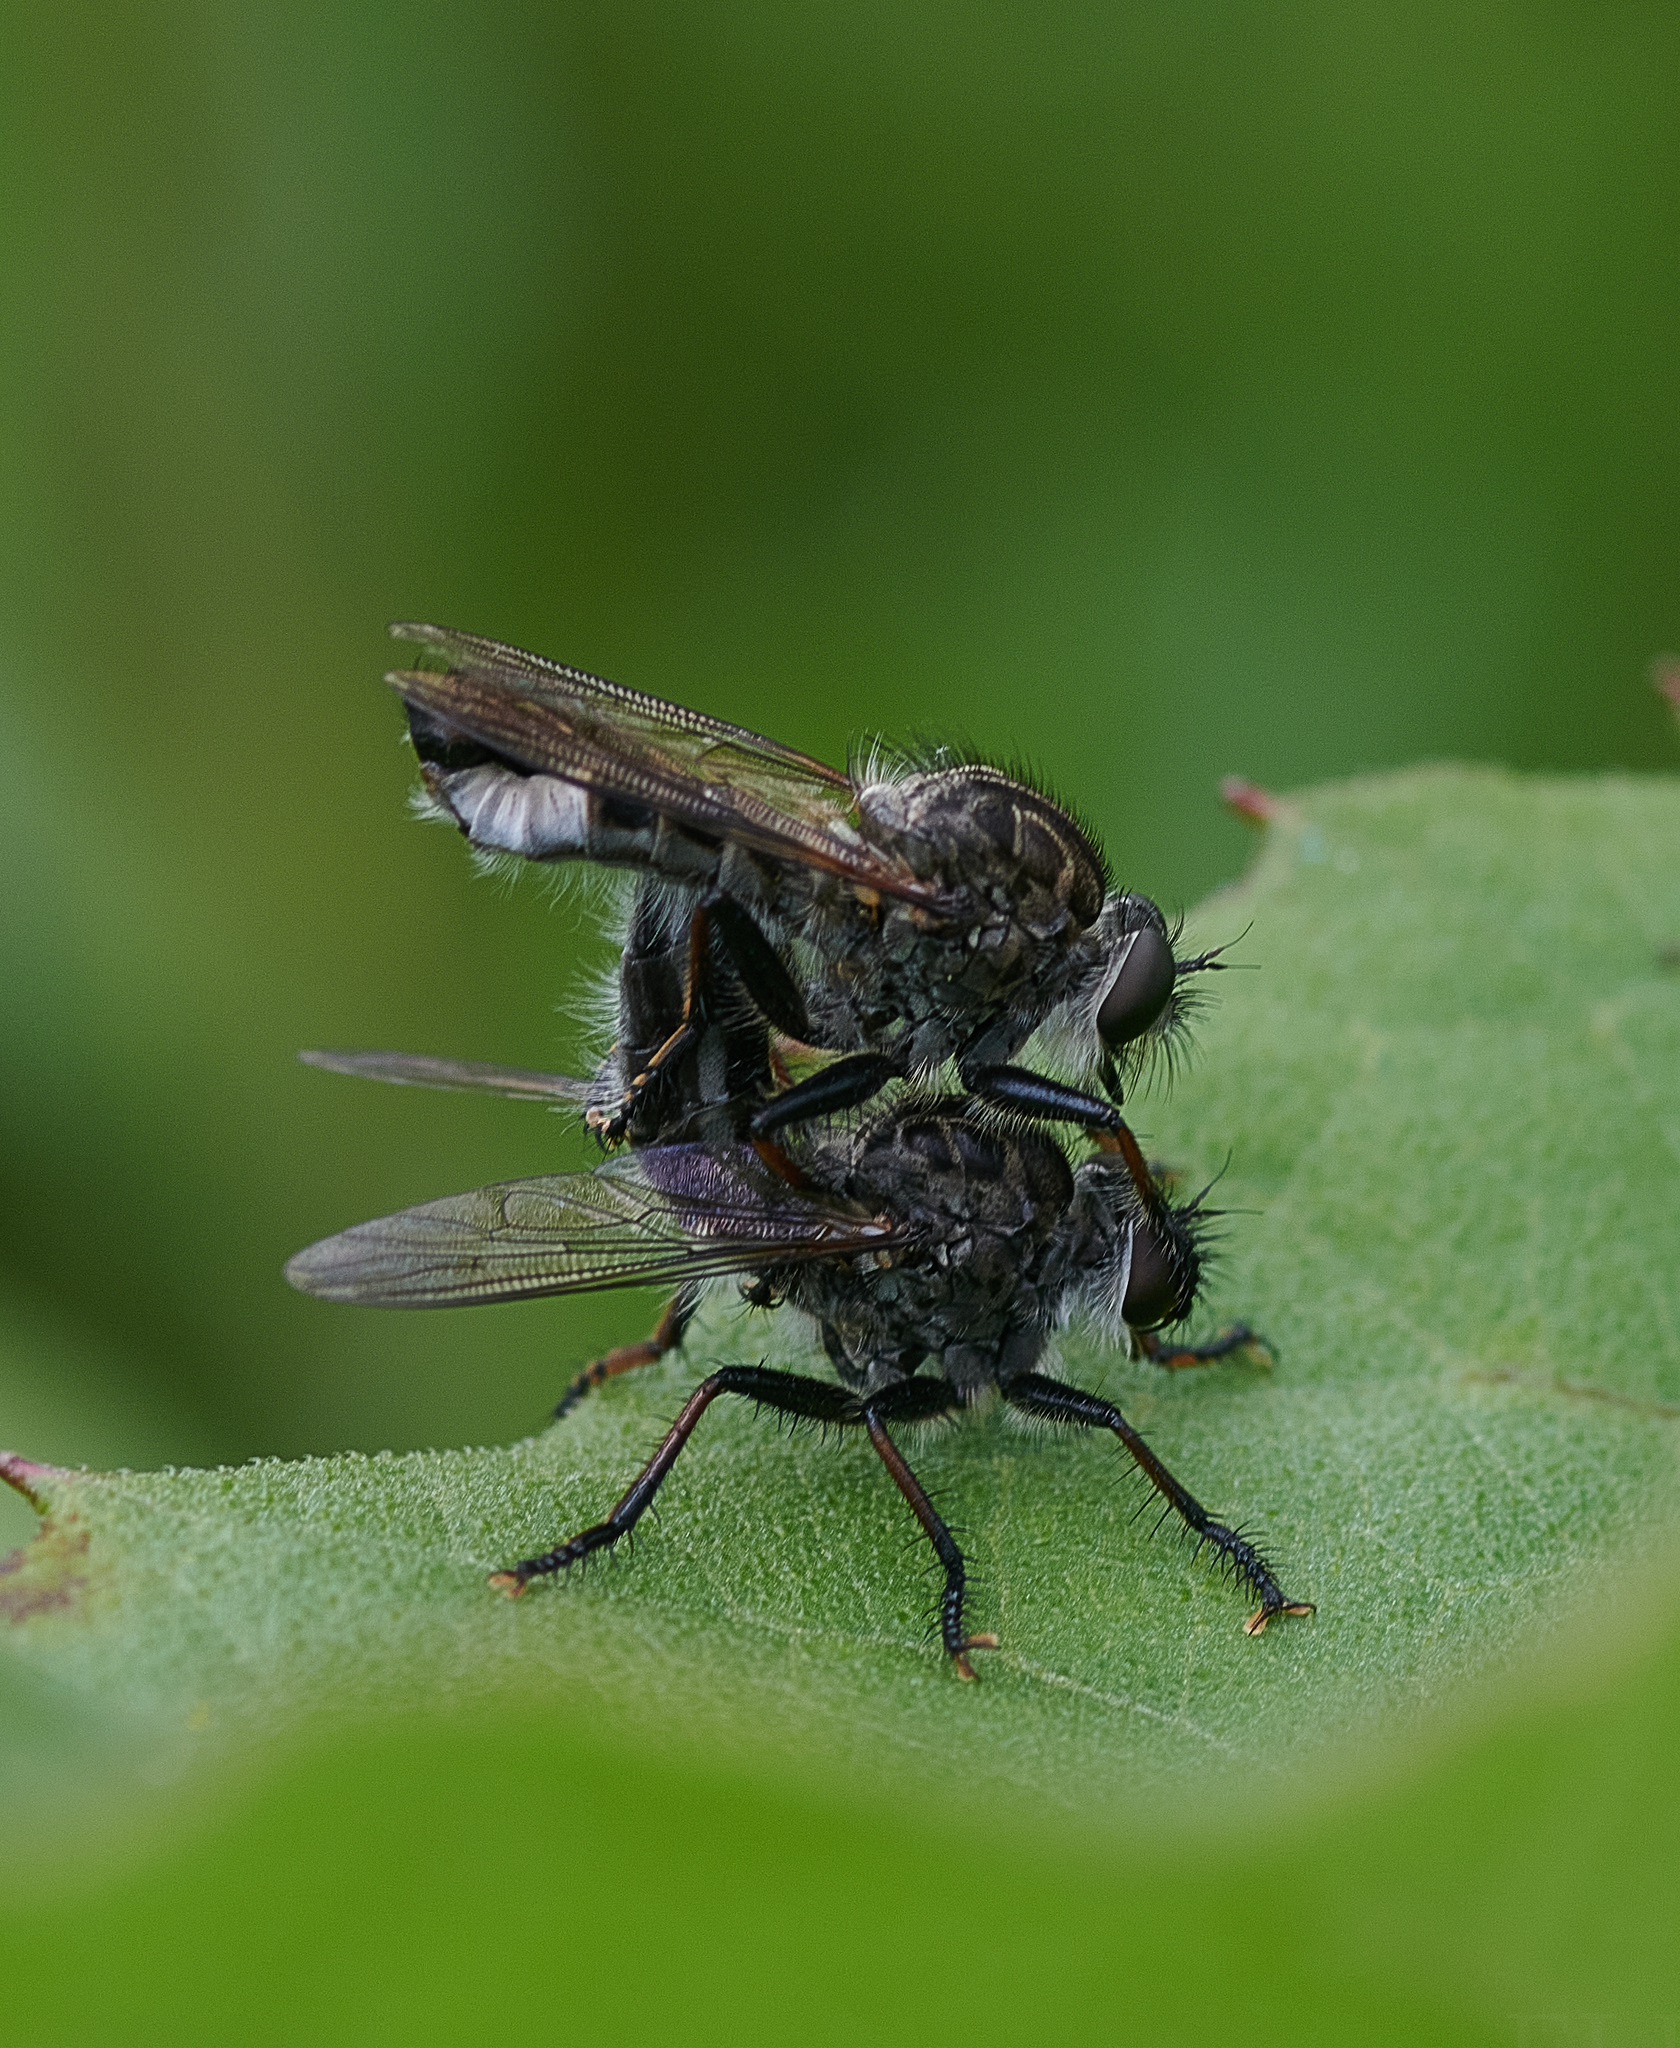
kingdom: Animalia
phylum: Arthropoda
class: Insecta
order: Diptera
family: Asilidae
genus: Efferia
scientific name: Efferia aestuans
